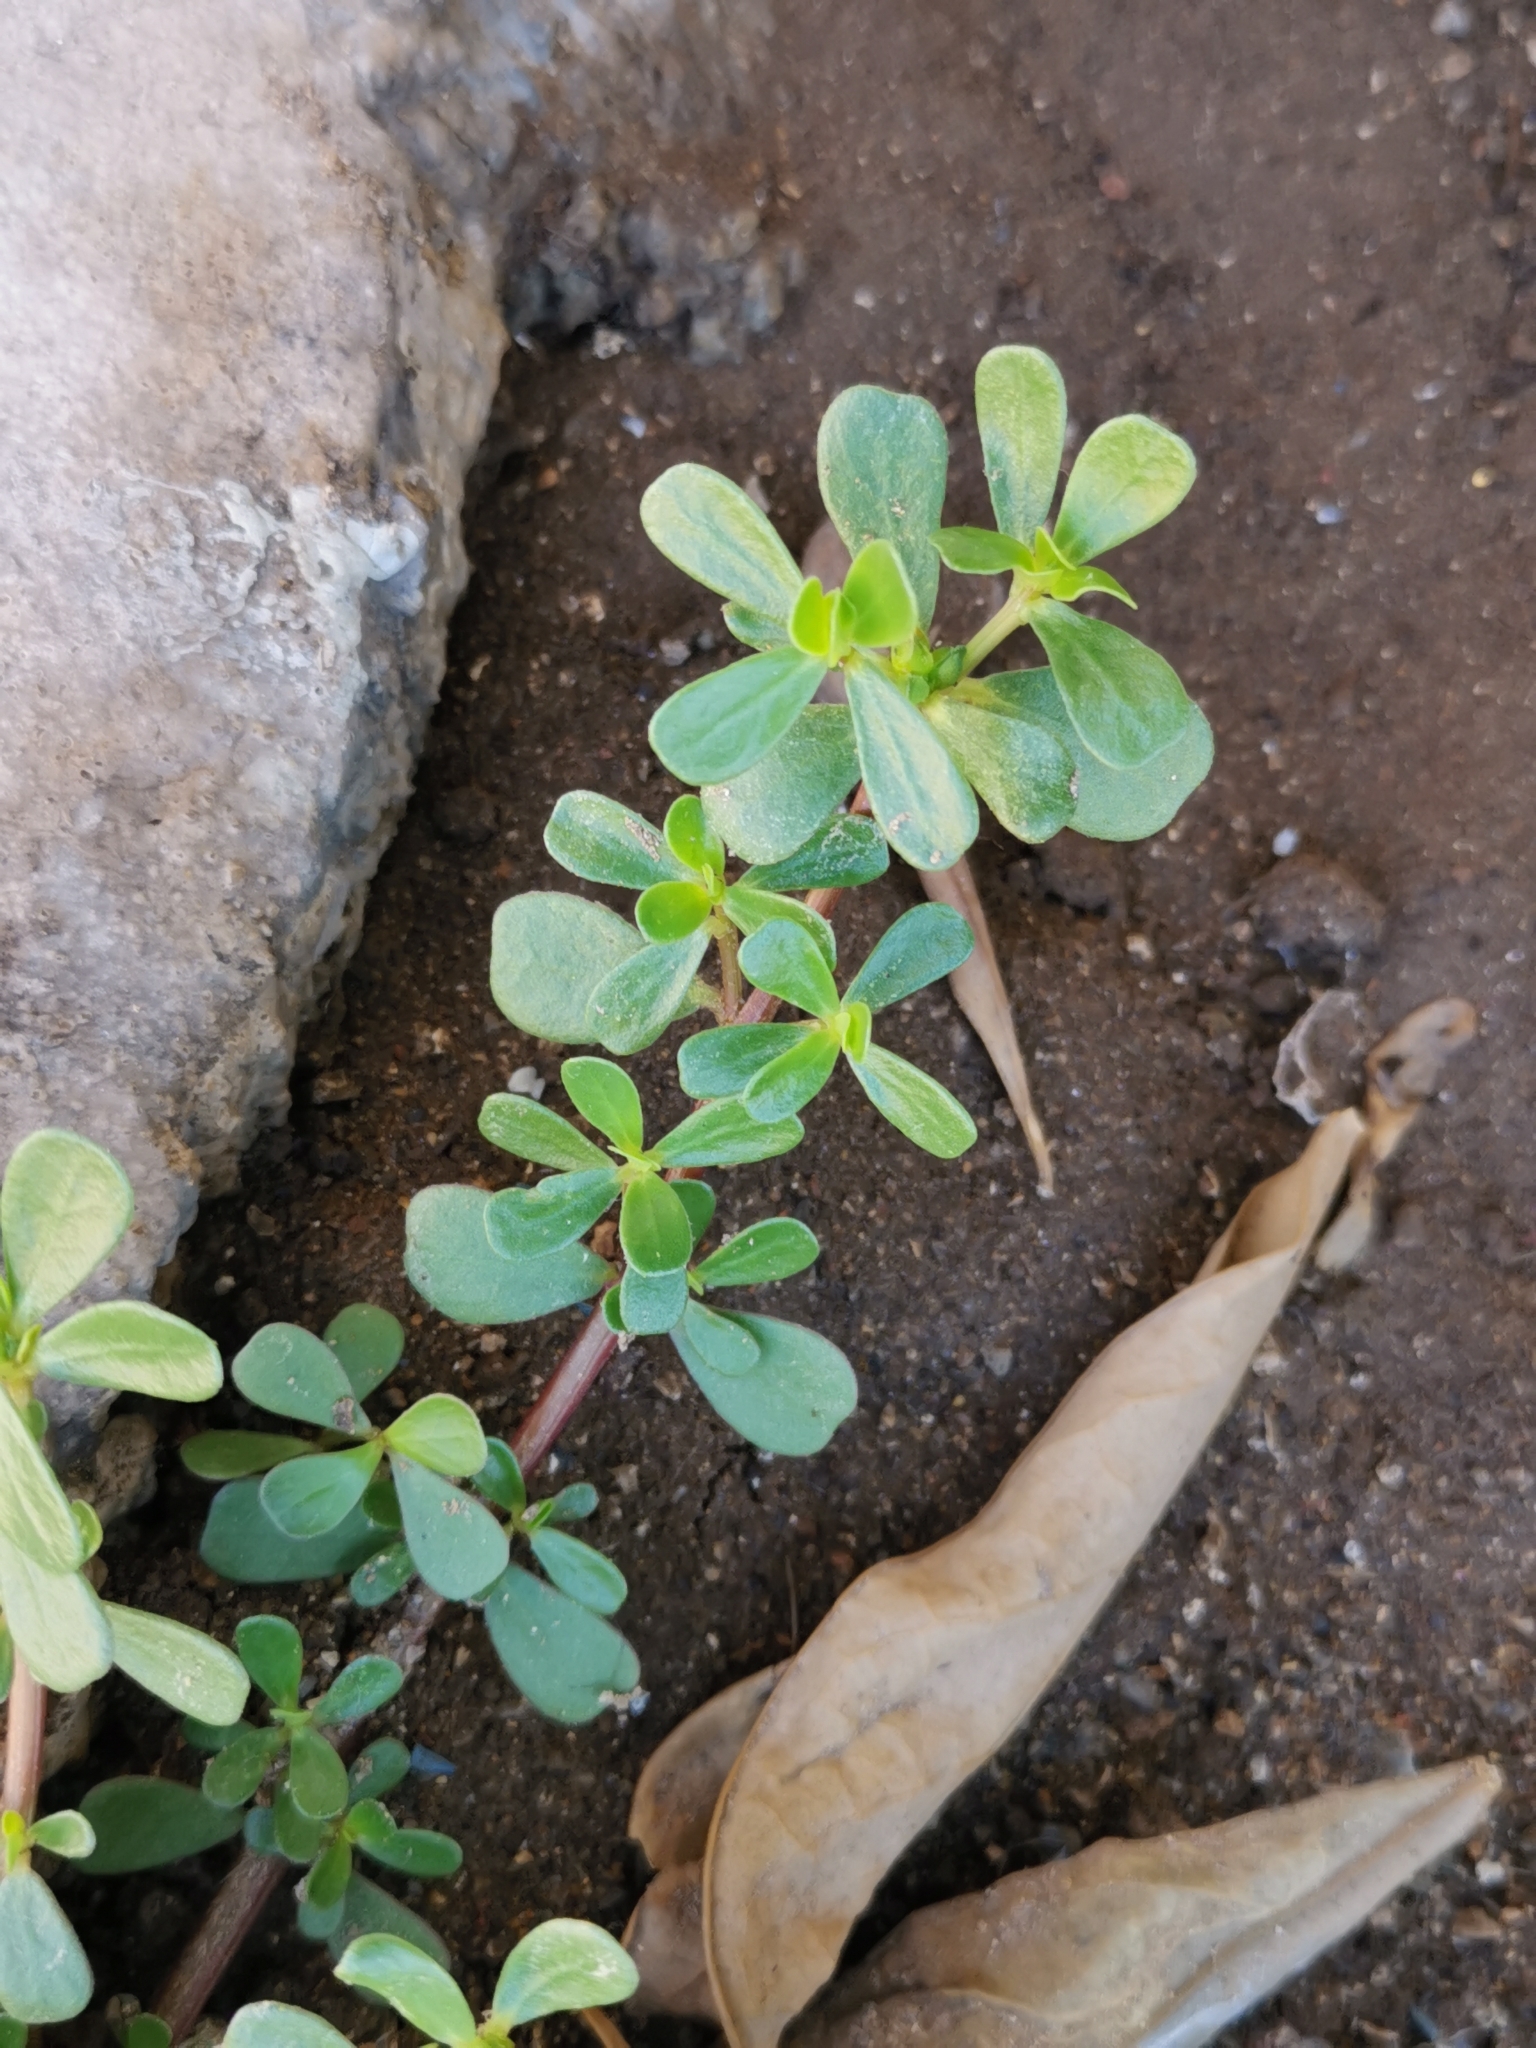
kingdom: Plantae
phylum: Tracheophyta
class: Magnoliopsida
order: Caryophyllales
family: Portulacaceae
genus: Portulaca
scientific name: Portulaca oleracea
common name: Common purslane
